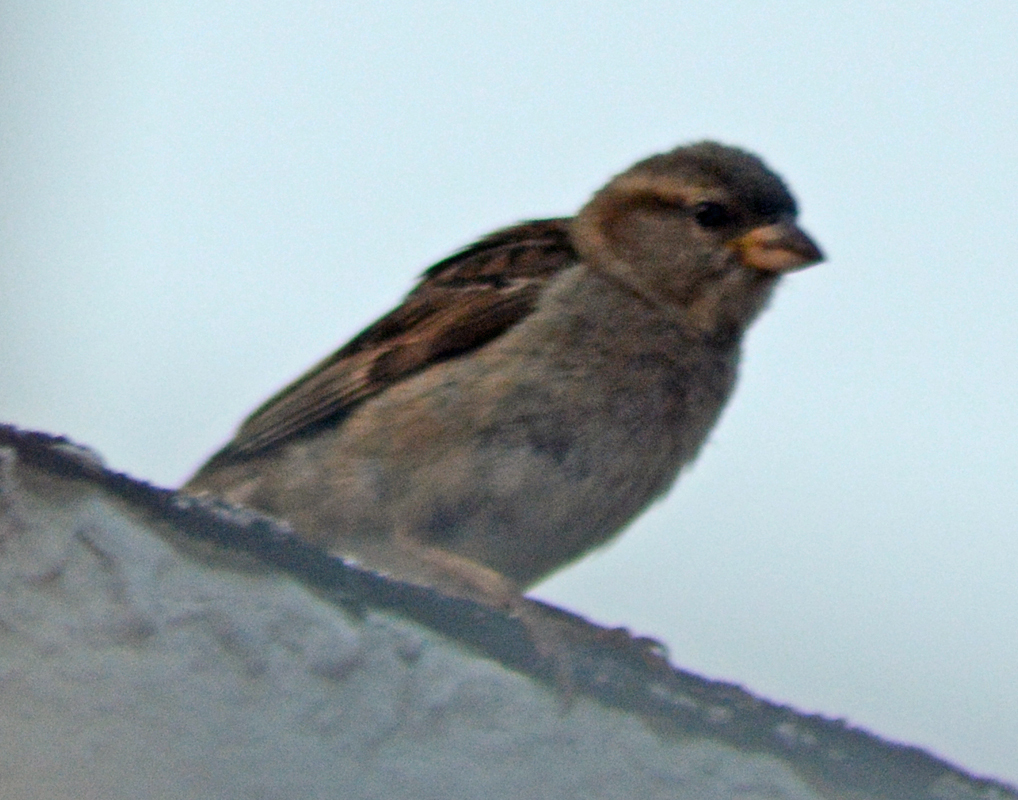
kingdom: Animalia
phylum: Chordata
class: Aves
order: Passeriformes
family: Passeridae
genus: Passer
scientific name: Passer domesticus
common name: House sparrow
